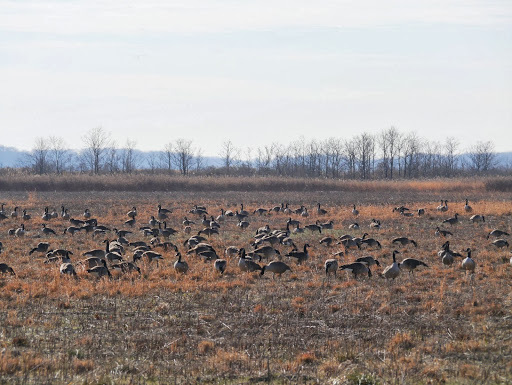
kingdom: Animalia
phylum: Chordata
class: Aves
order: Anseriformes
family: Anatidae
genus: Branta
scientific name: Branta canadensis
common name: Canada goose
